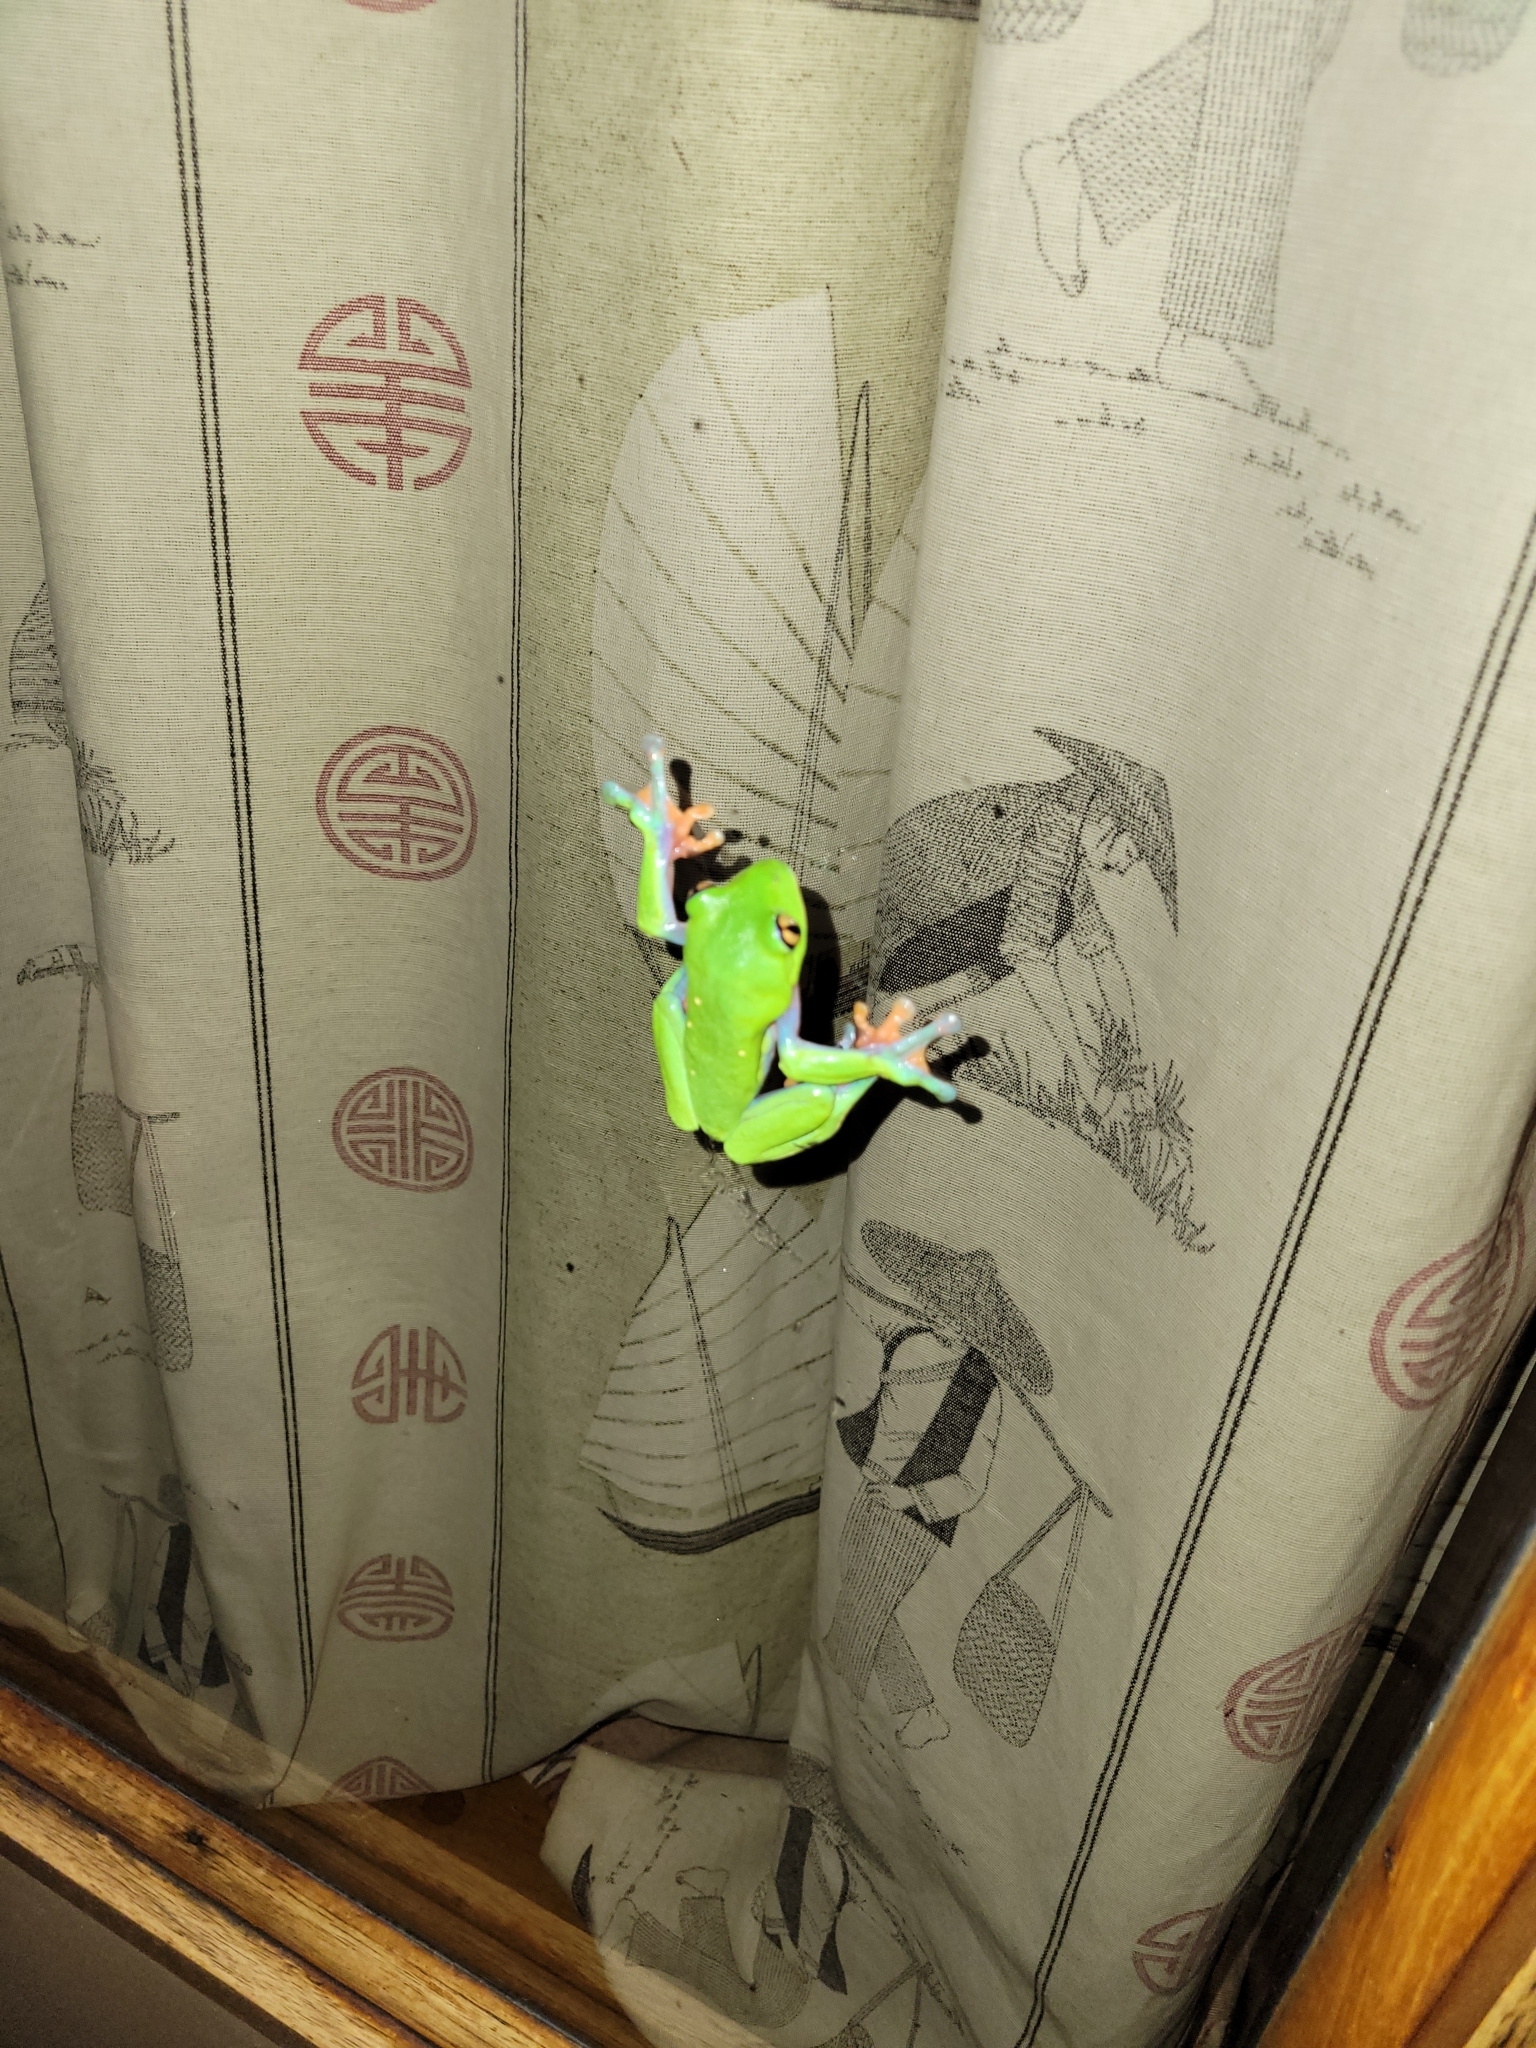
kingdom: Animalia
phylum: Chordata
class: Amphibia
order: Anura
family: Phyllomedusidae
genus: Agalychnis
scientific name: Agalychnis annae
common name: Blue-sided treefrog
